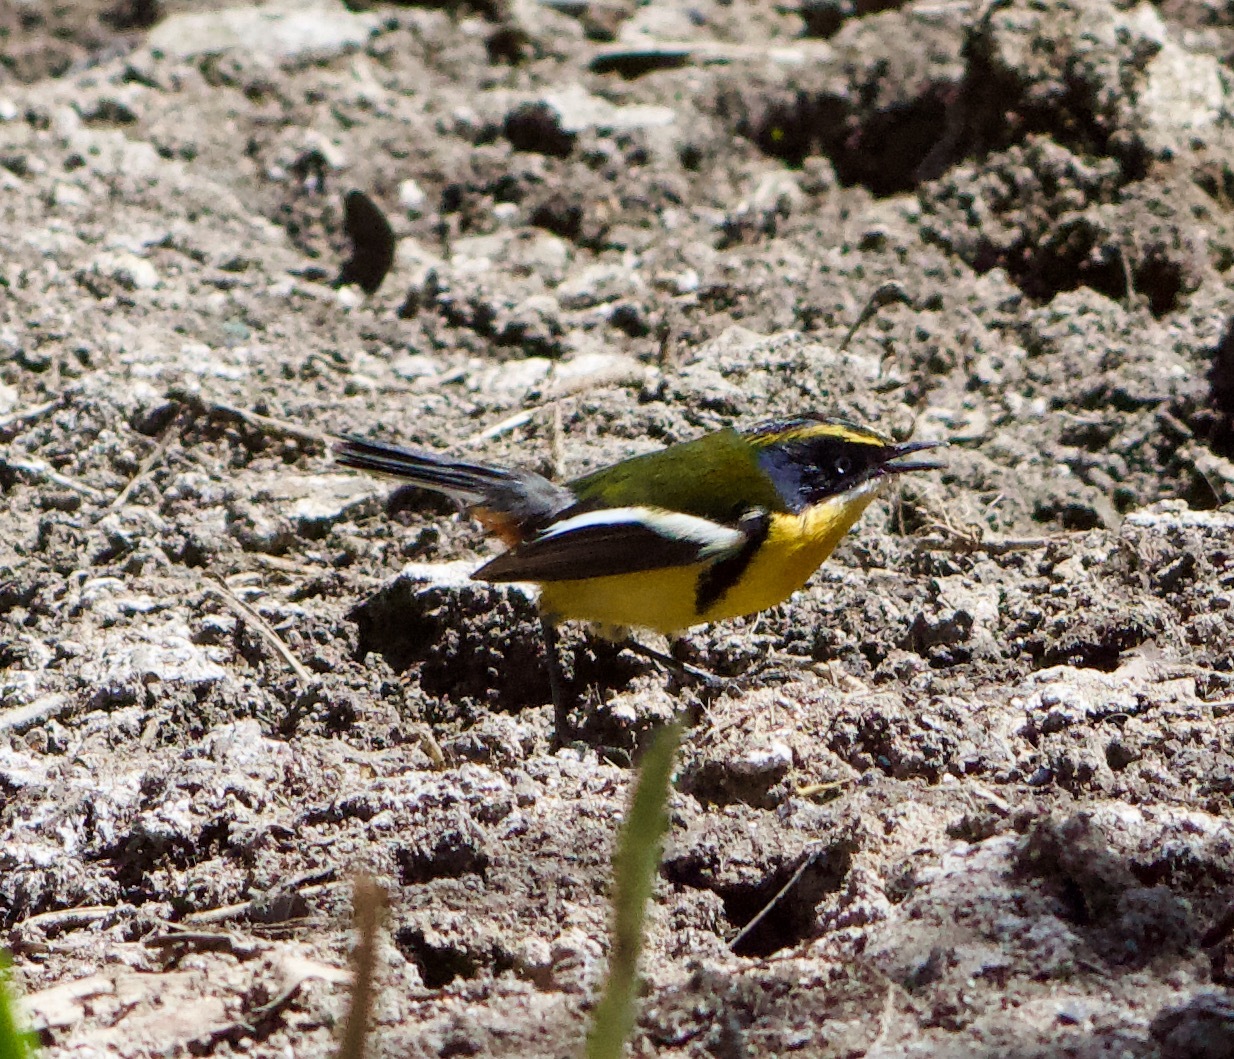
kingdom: Animalia
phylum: Chordata
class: Aves
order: Passeriformes
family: Tyrannidae
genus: Tachuris
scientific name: Tachuris rubrigastra
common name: Many-colored rush tyrant
